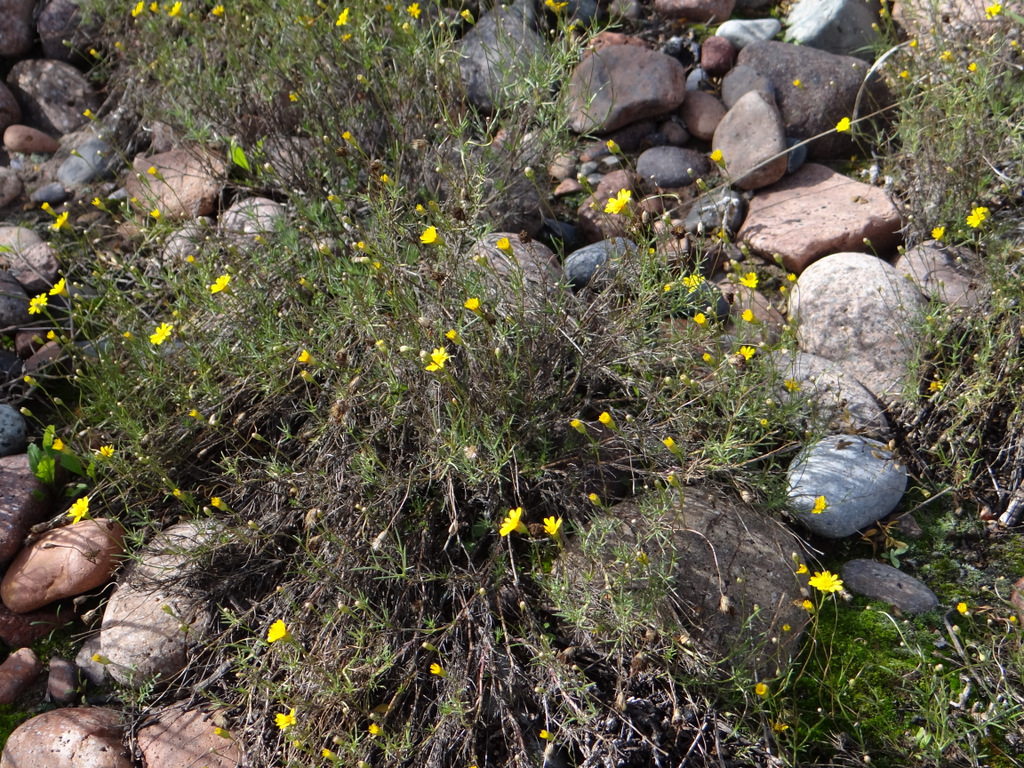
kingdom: Plantae
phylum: Tracheophyta
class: Magnoliopsida
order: Asterales
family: Asteraceae
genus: Thymophylla
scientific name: Thymophylla pentachaeta
